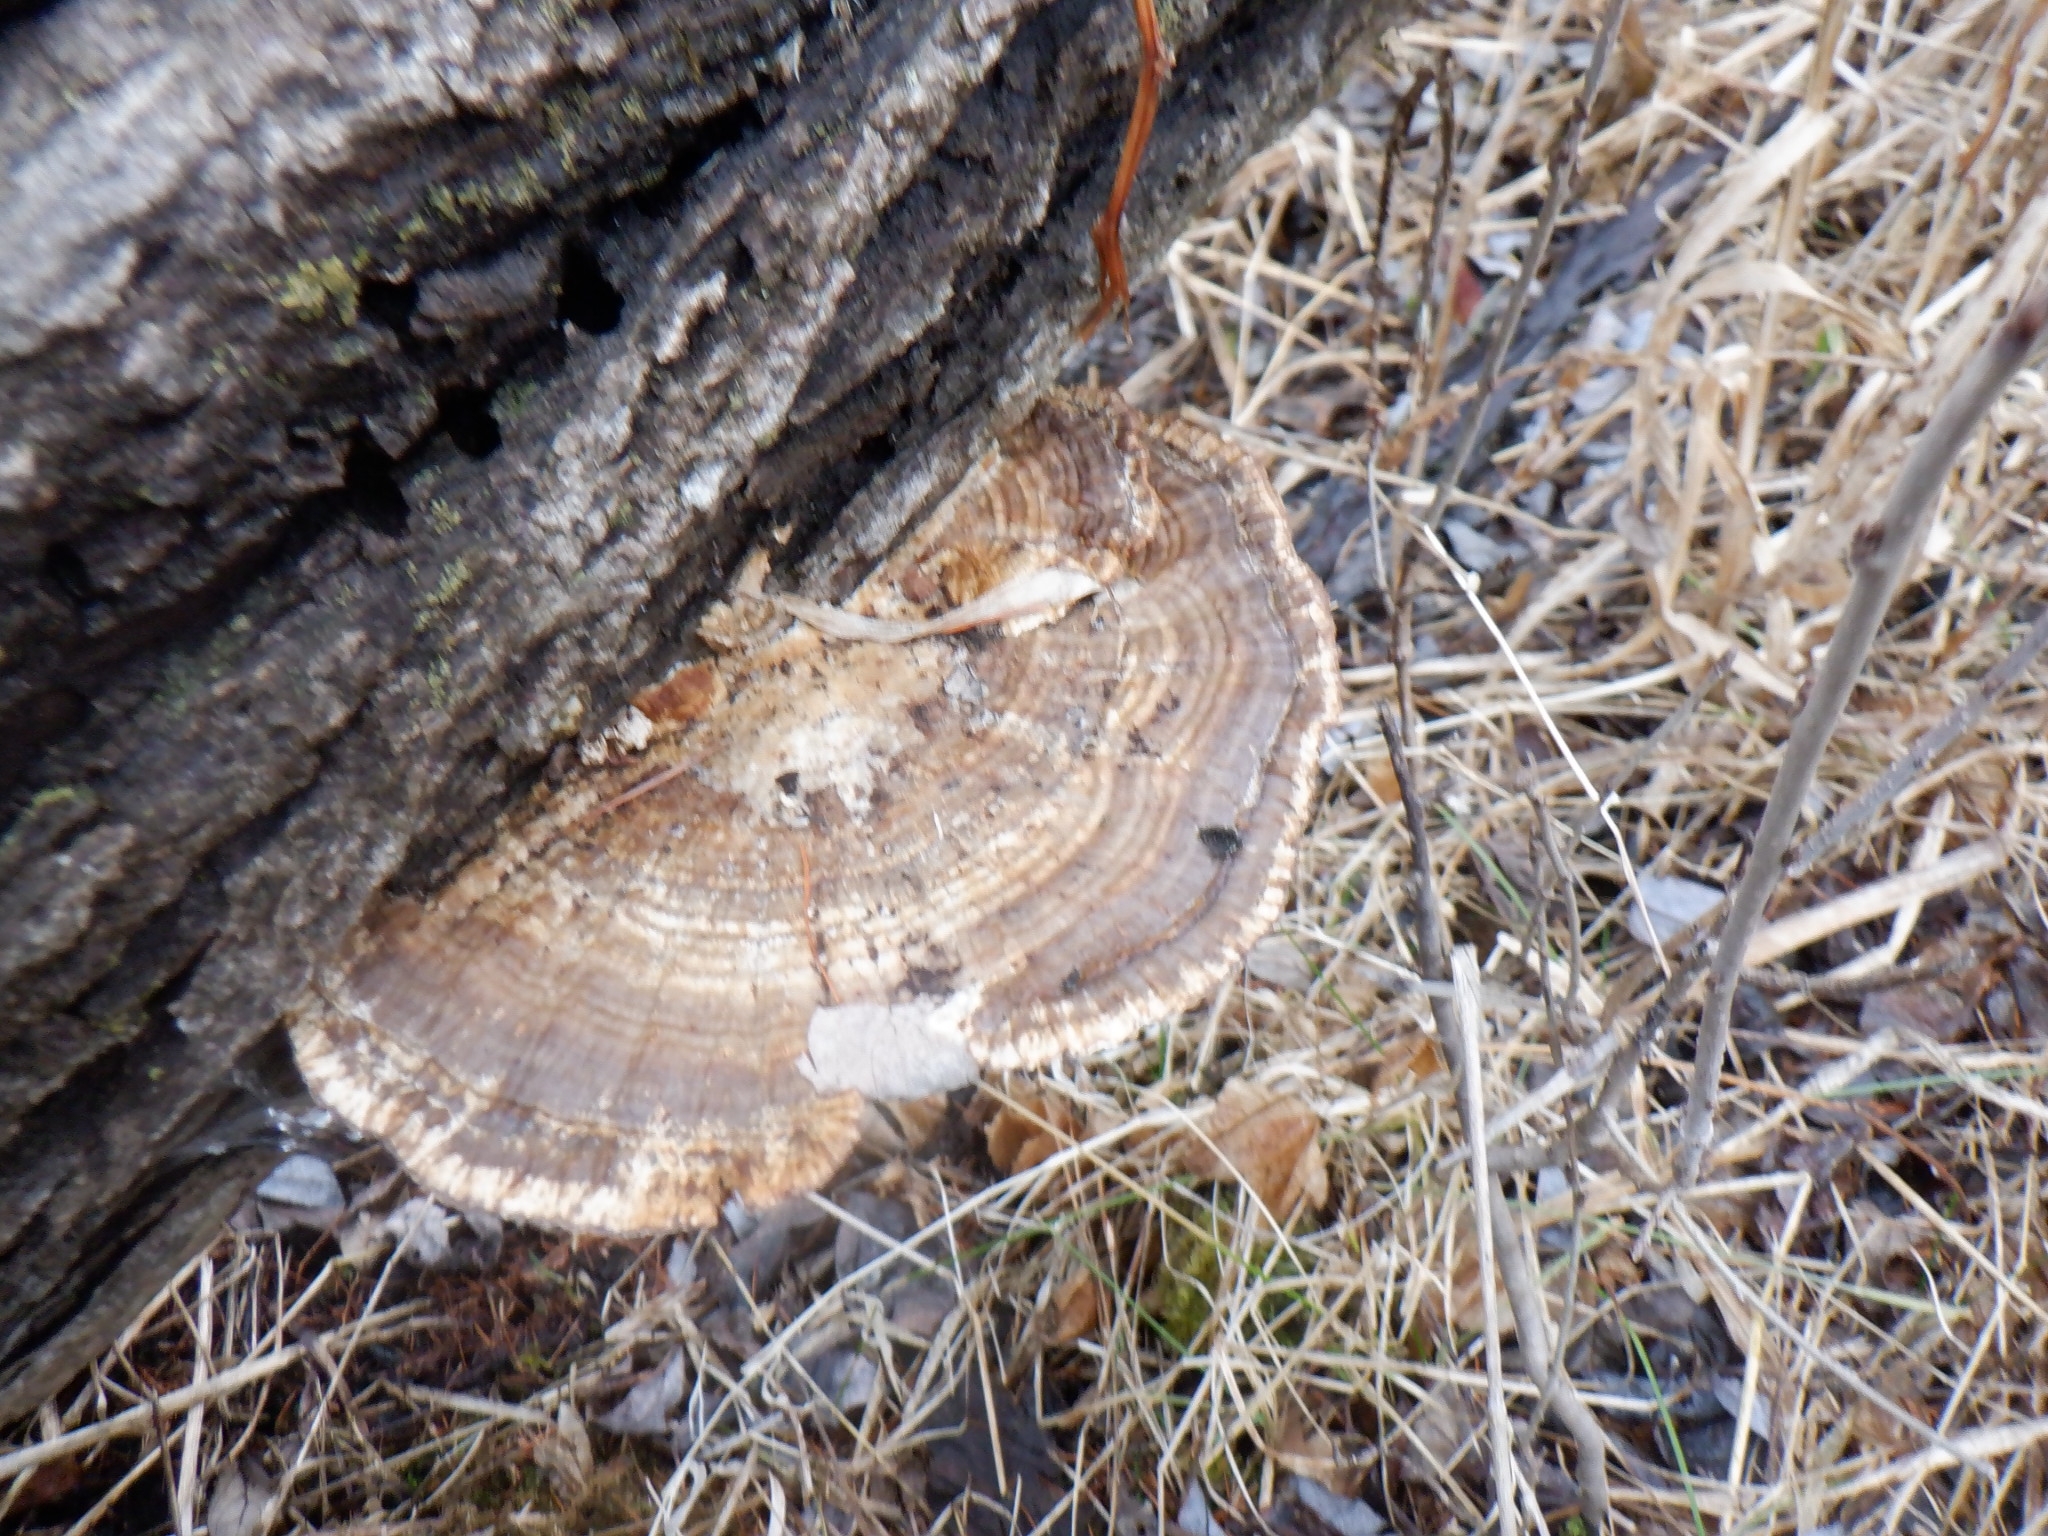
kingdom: Fungi
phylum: Basidiomycota
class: Agaricomycetes
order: Polyporales
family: Polyporaceae
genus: Daedaleopsis
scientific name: Daedaleopsis confragosa
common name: Blushing bracket
